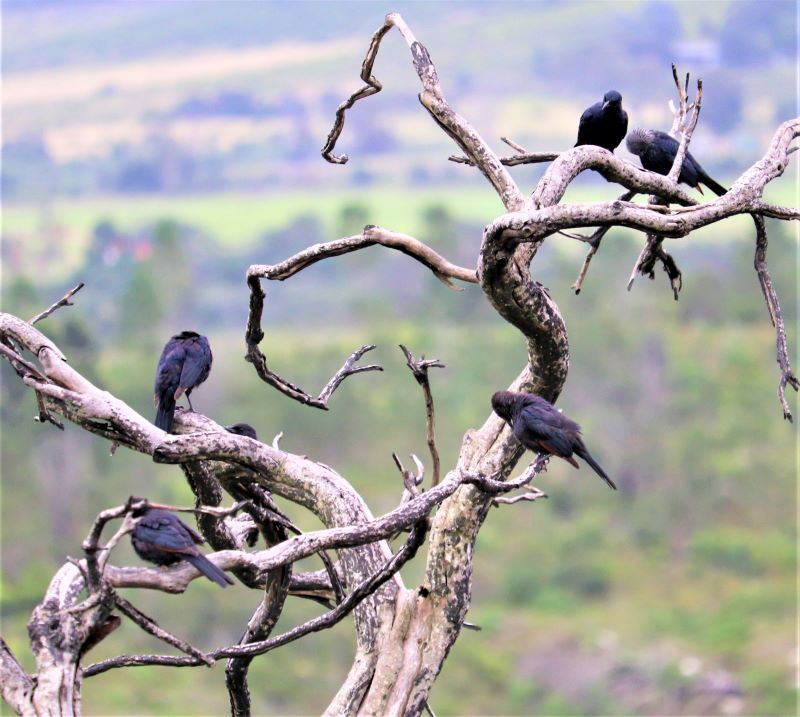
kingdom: Animalia
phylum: Chordata
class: Aves
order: Passeriformes
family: Sturnidae
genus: Onychognathus
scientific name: Onychognathus morio
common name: Red-winged starling
